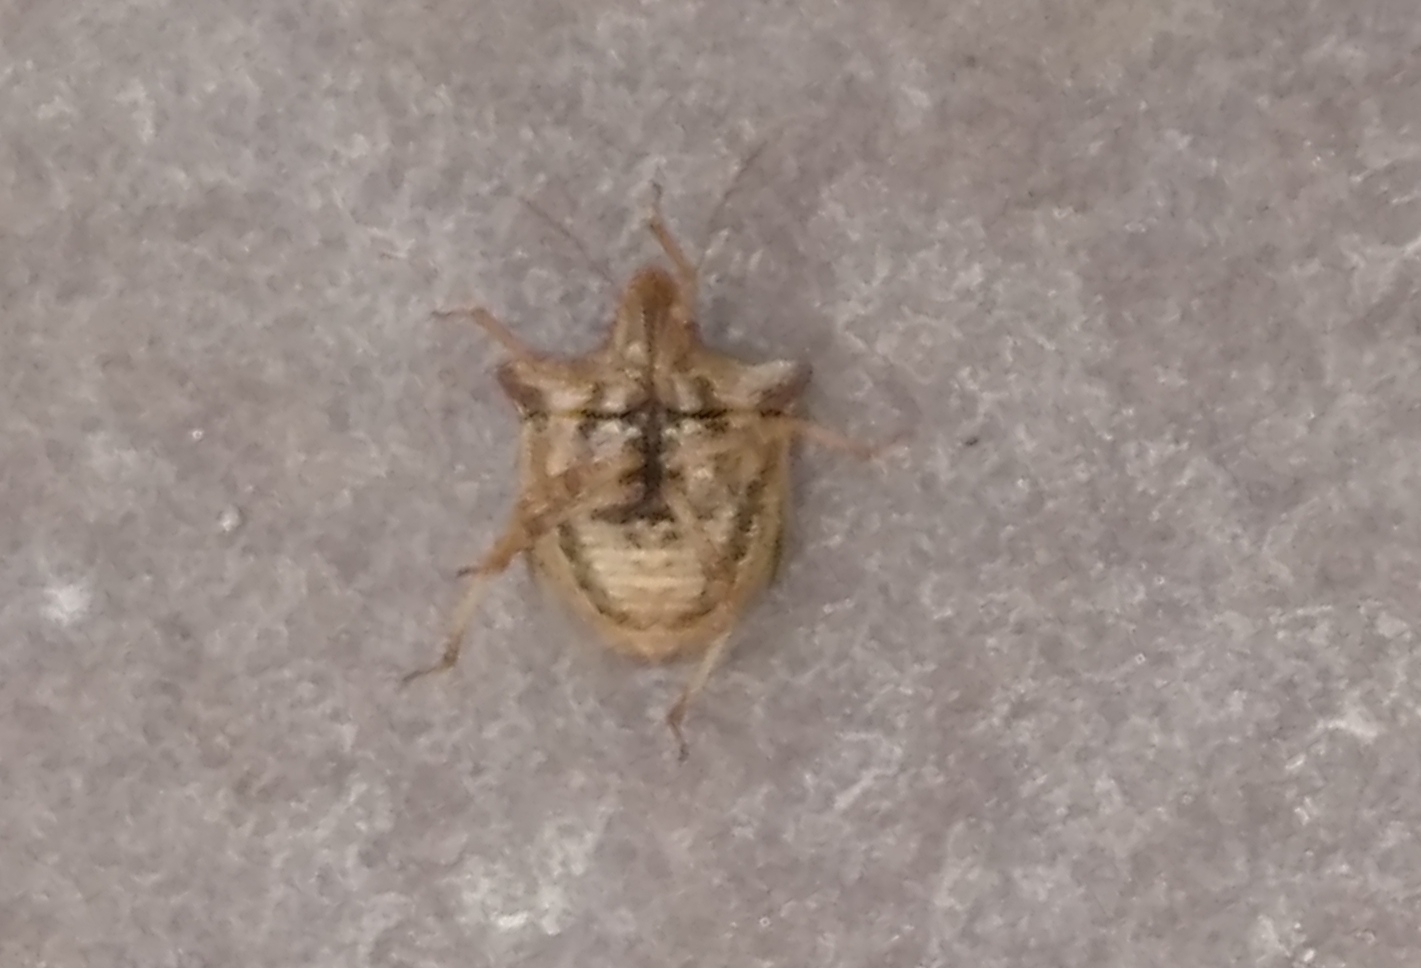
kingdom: Animalia
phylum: Arthropoda
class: Insecta
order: Hemiptera
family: Pentatomidae
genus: Ancyrosoma
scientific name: Ancyrosoma leucogrammes
